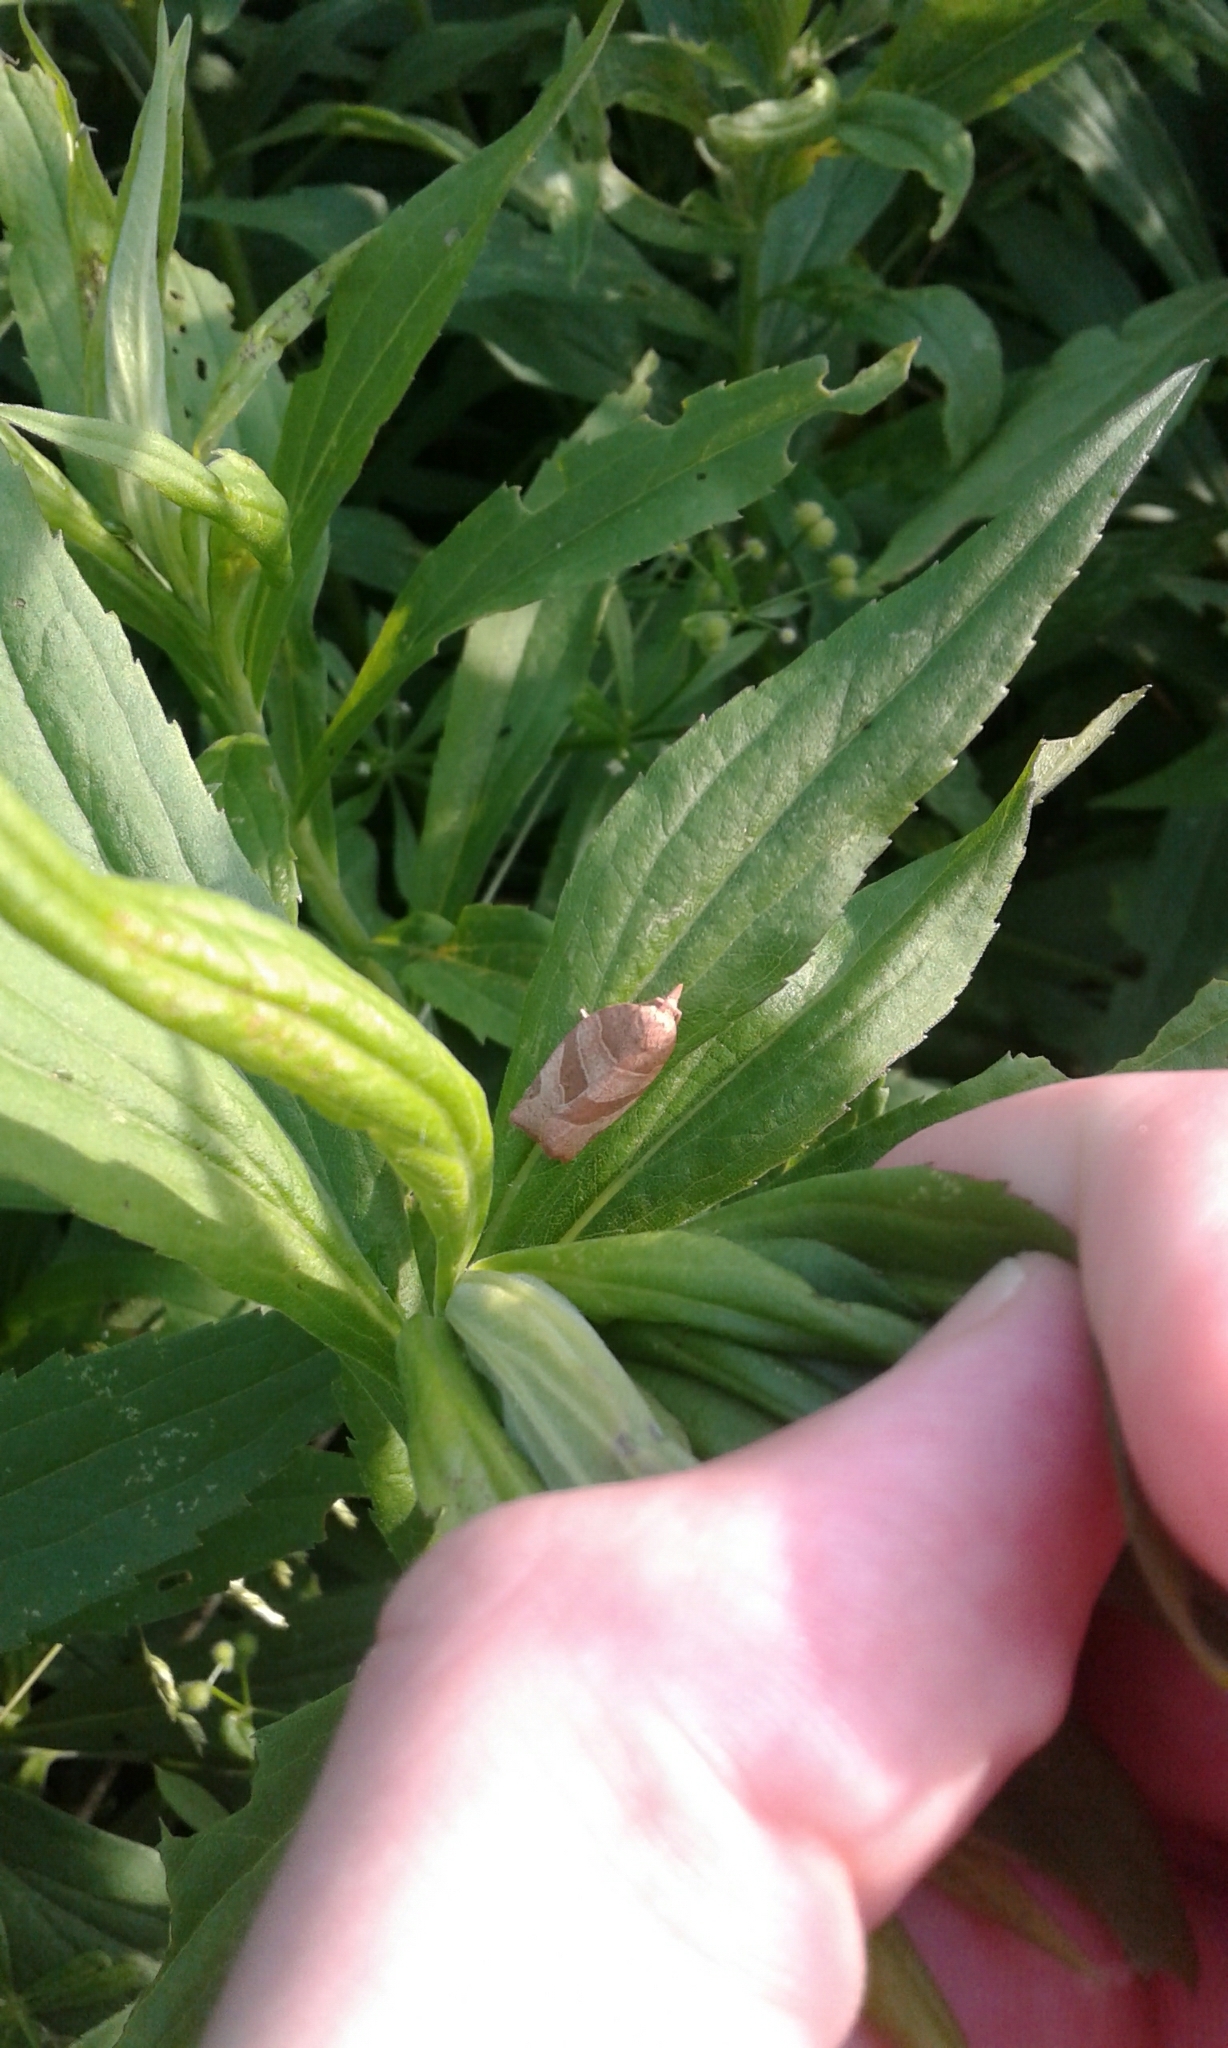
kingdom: Animalia
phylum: Arthropoda
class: Insecta
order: Lepidoptera
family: Tortricidae
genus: Pandemis
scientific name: Pandemis limitata
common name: Three-lined leafroller moth
